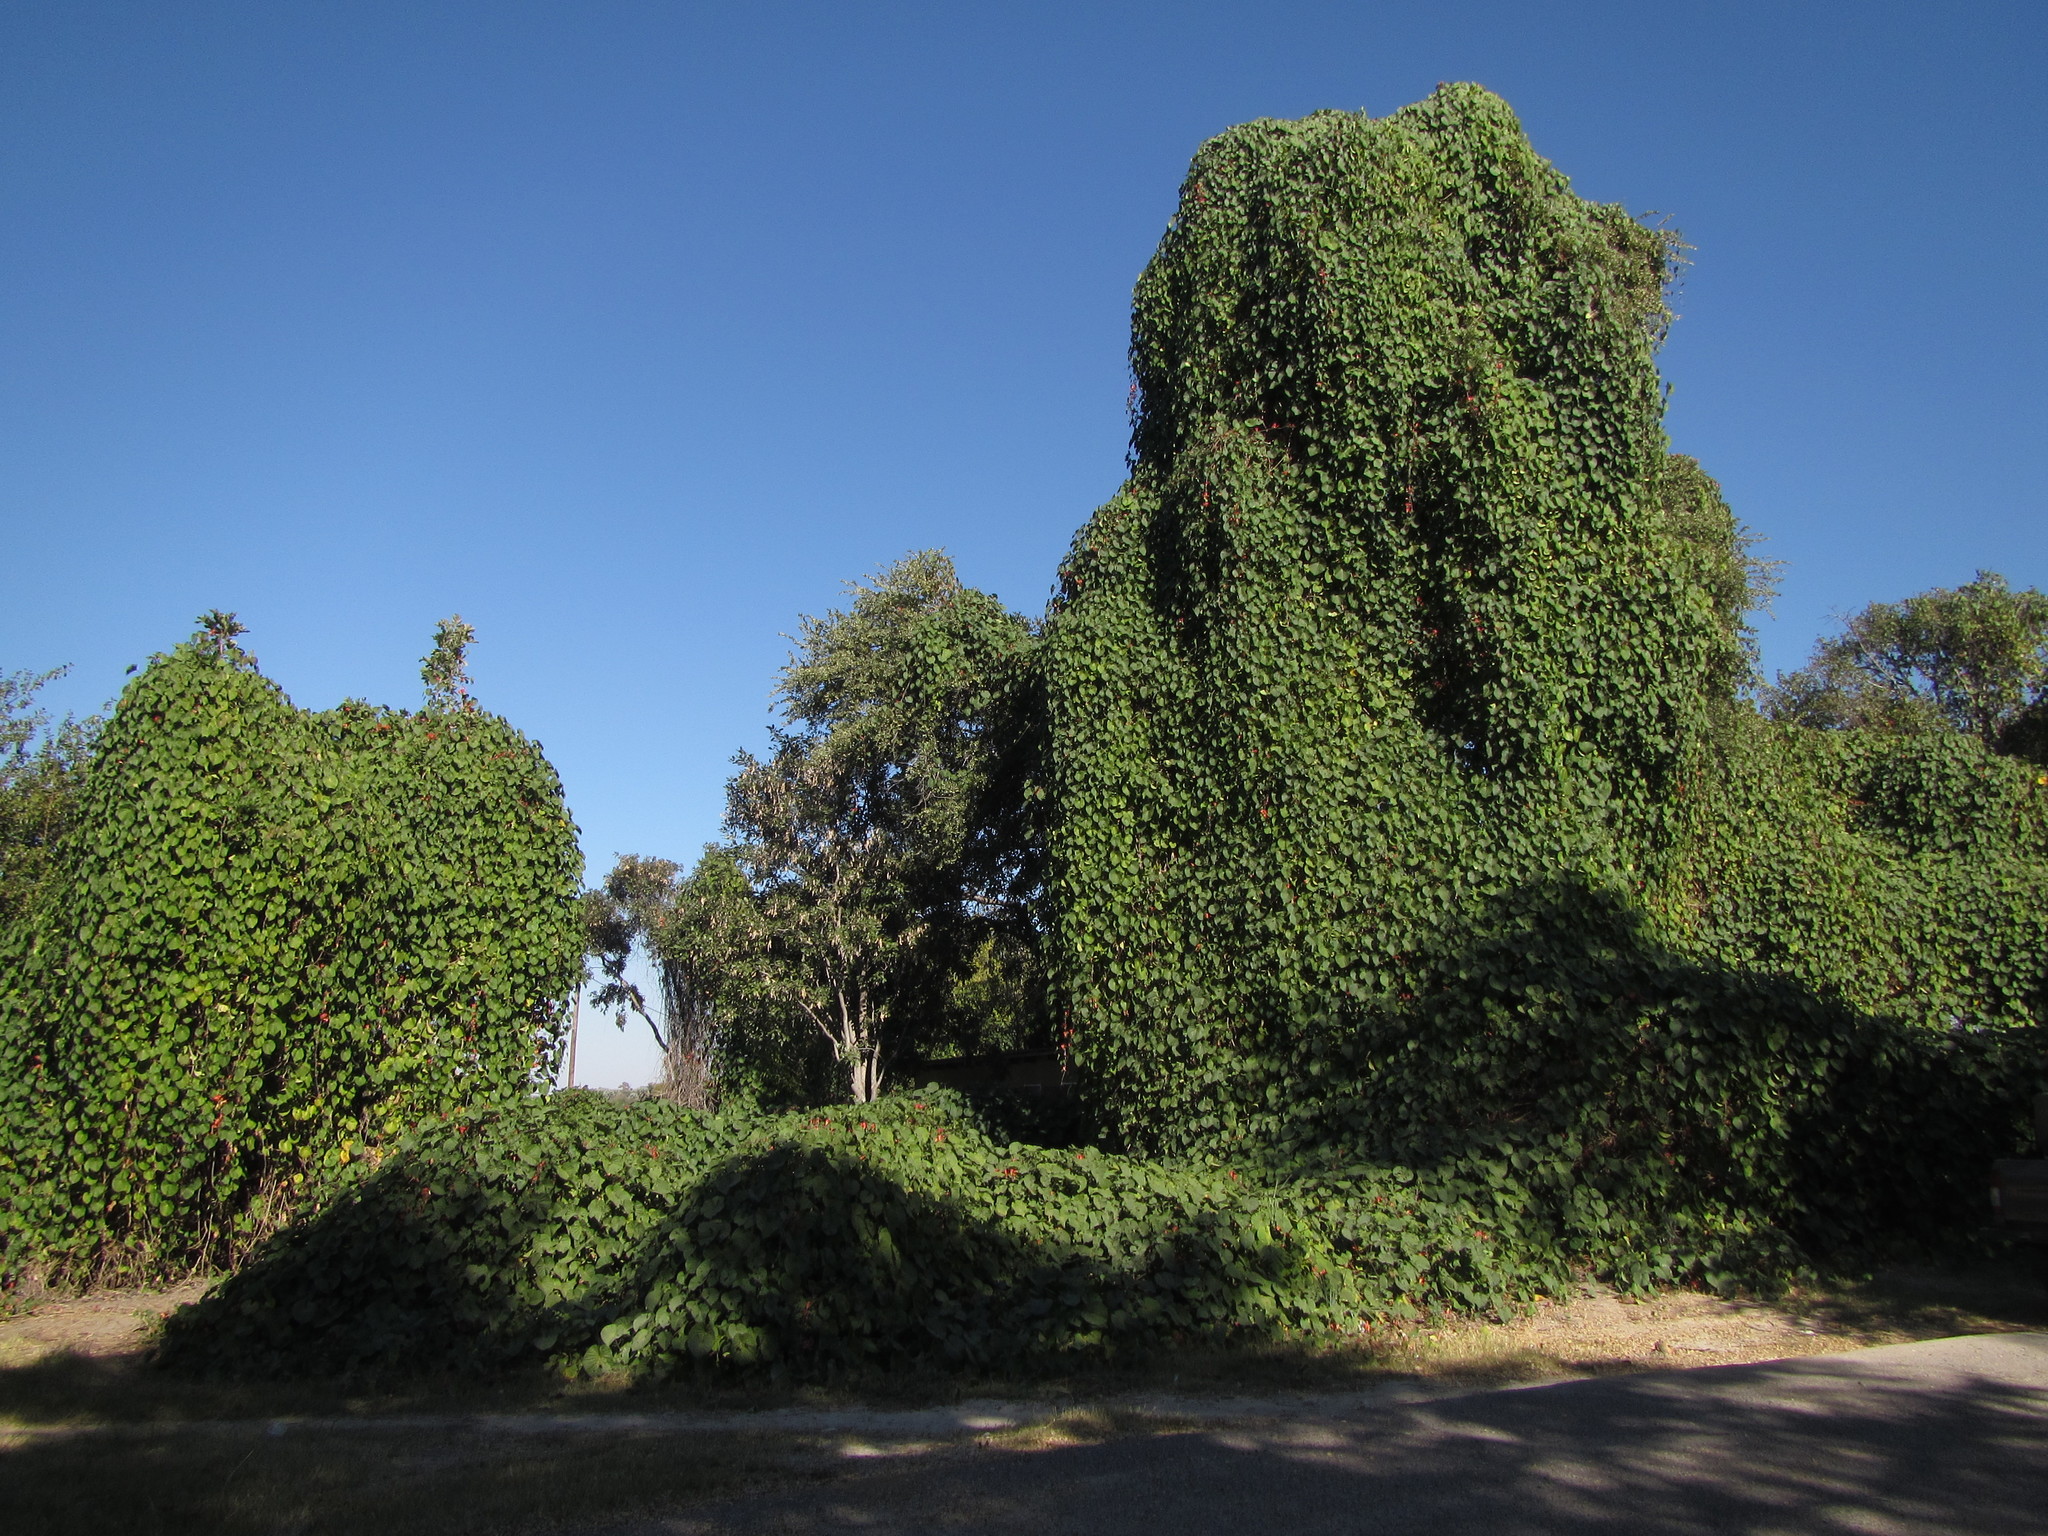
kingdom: Plantae
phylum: Tracheophyta
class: Magnoliopsida
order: Solanales
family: Convolvulaceae
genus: Stictocardia
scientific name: Stictocardia beraviensis
